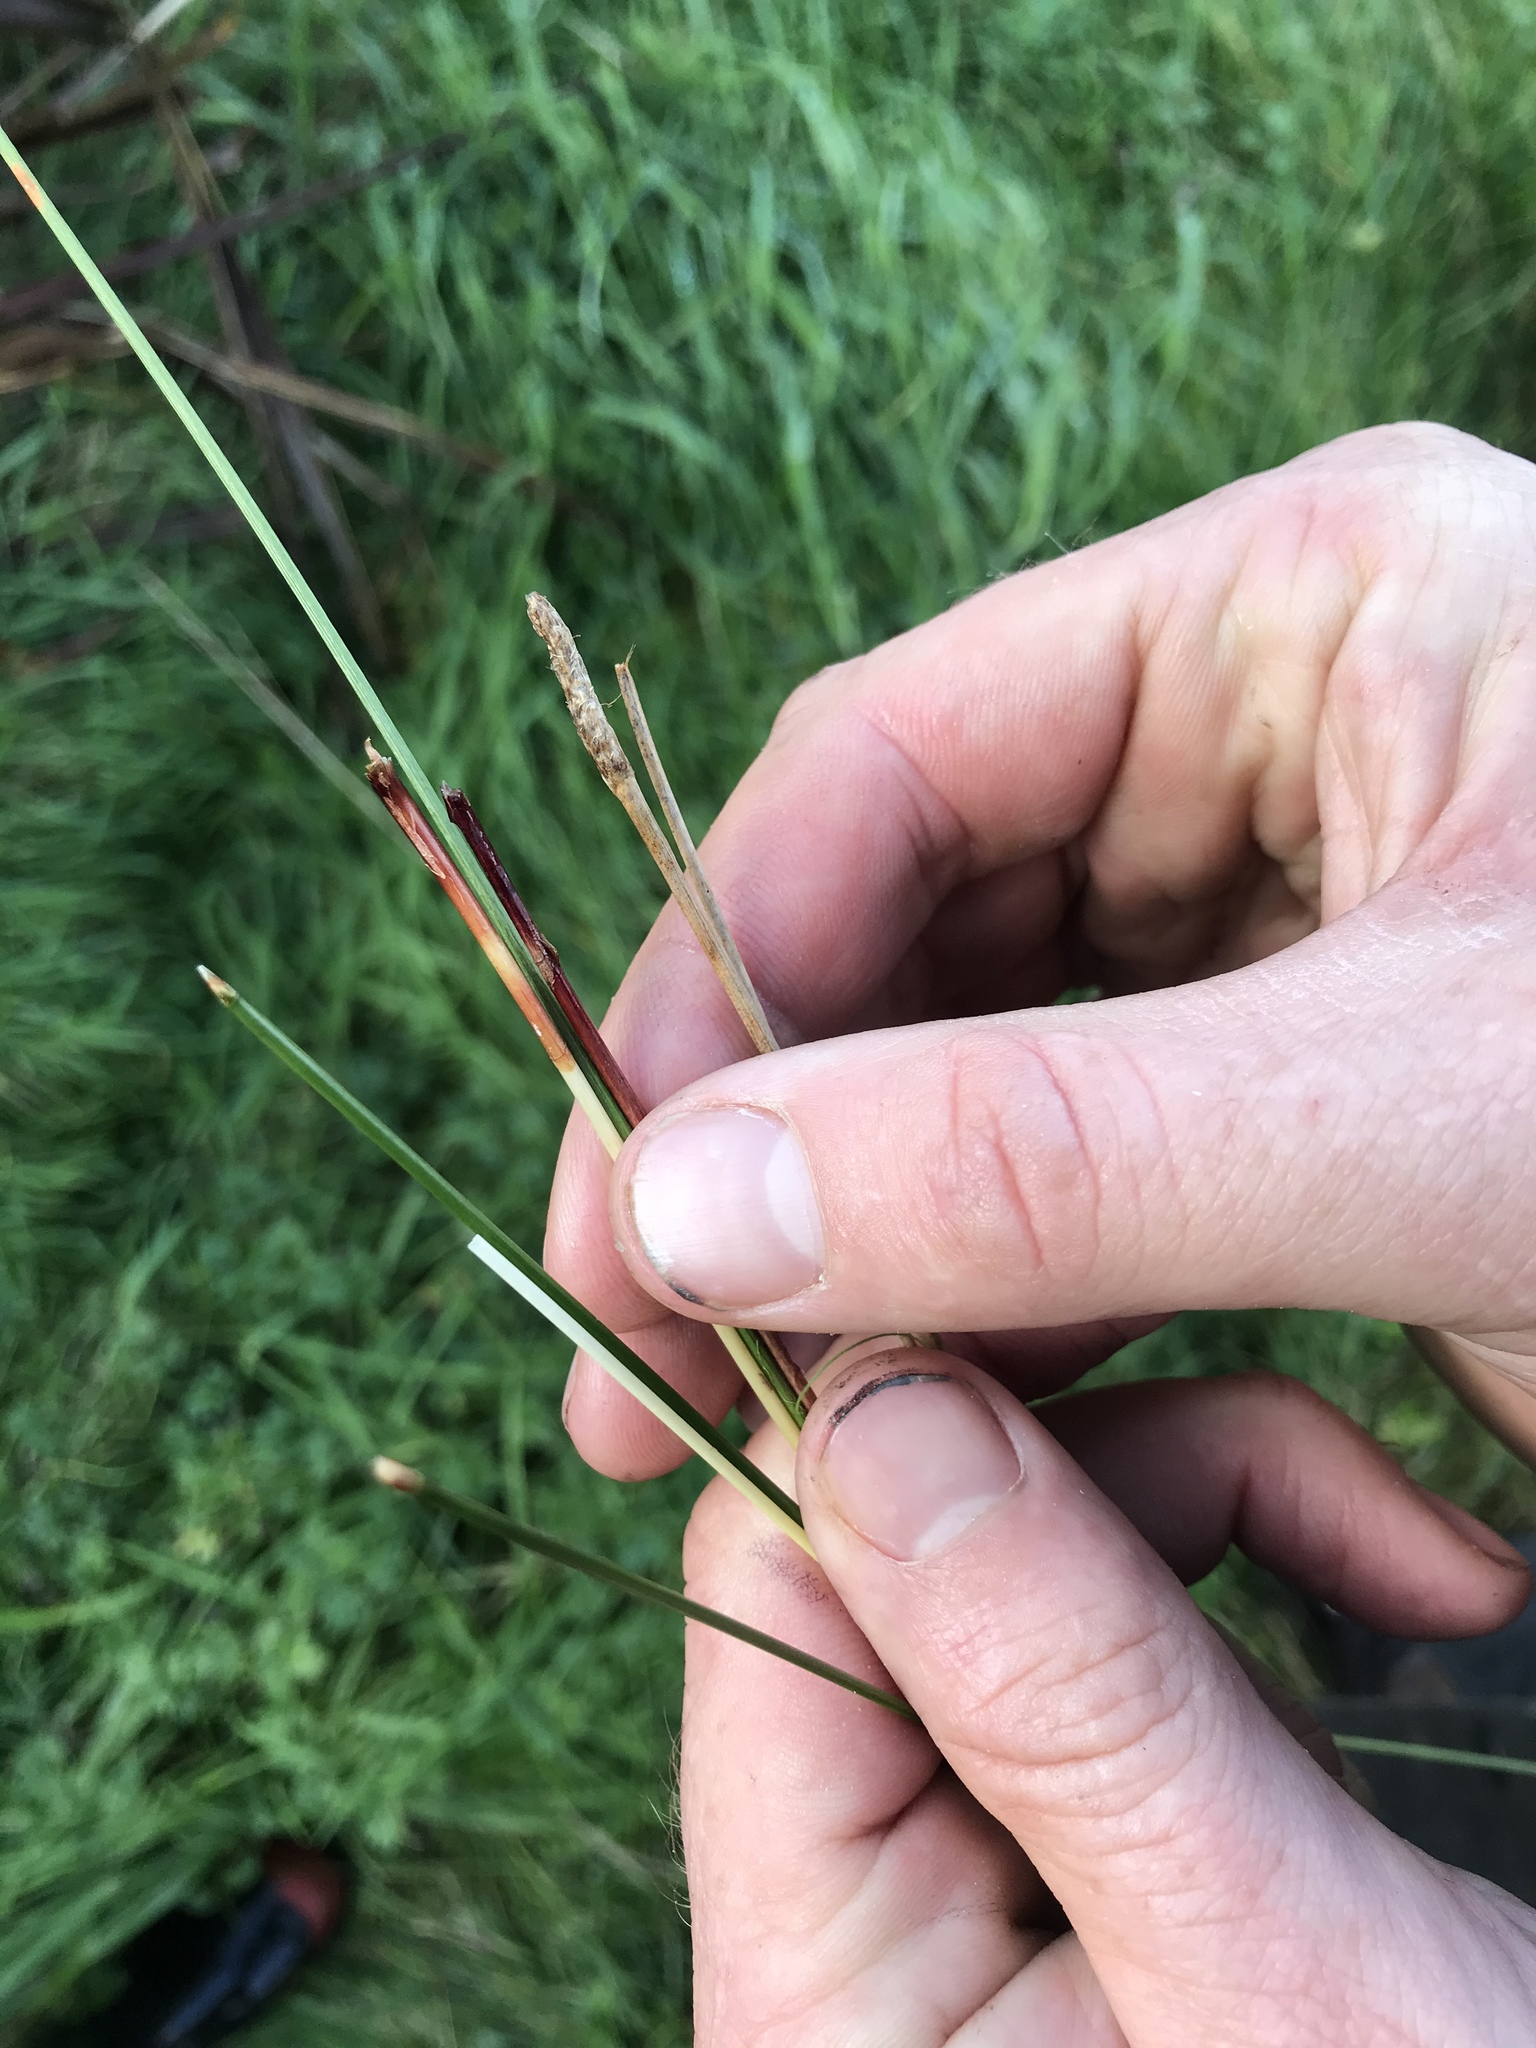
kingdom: Plantae
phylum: Tracheophyta
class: Liliopsida
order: Poales
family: Cyperaceae
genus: Eleocharis
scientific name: Eleocharis acuta
